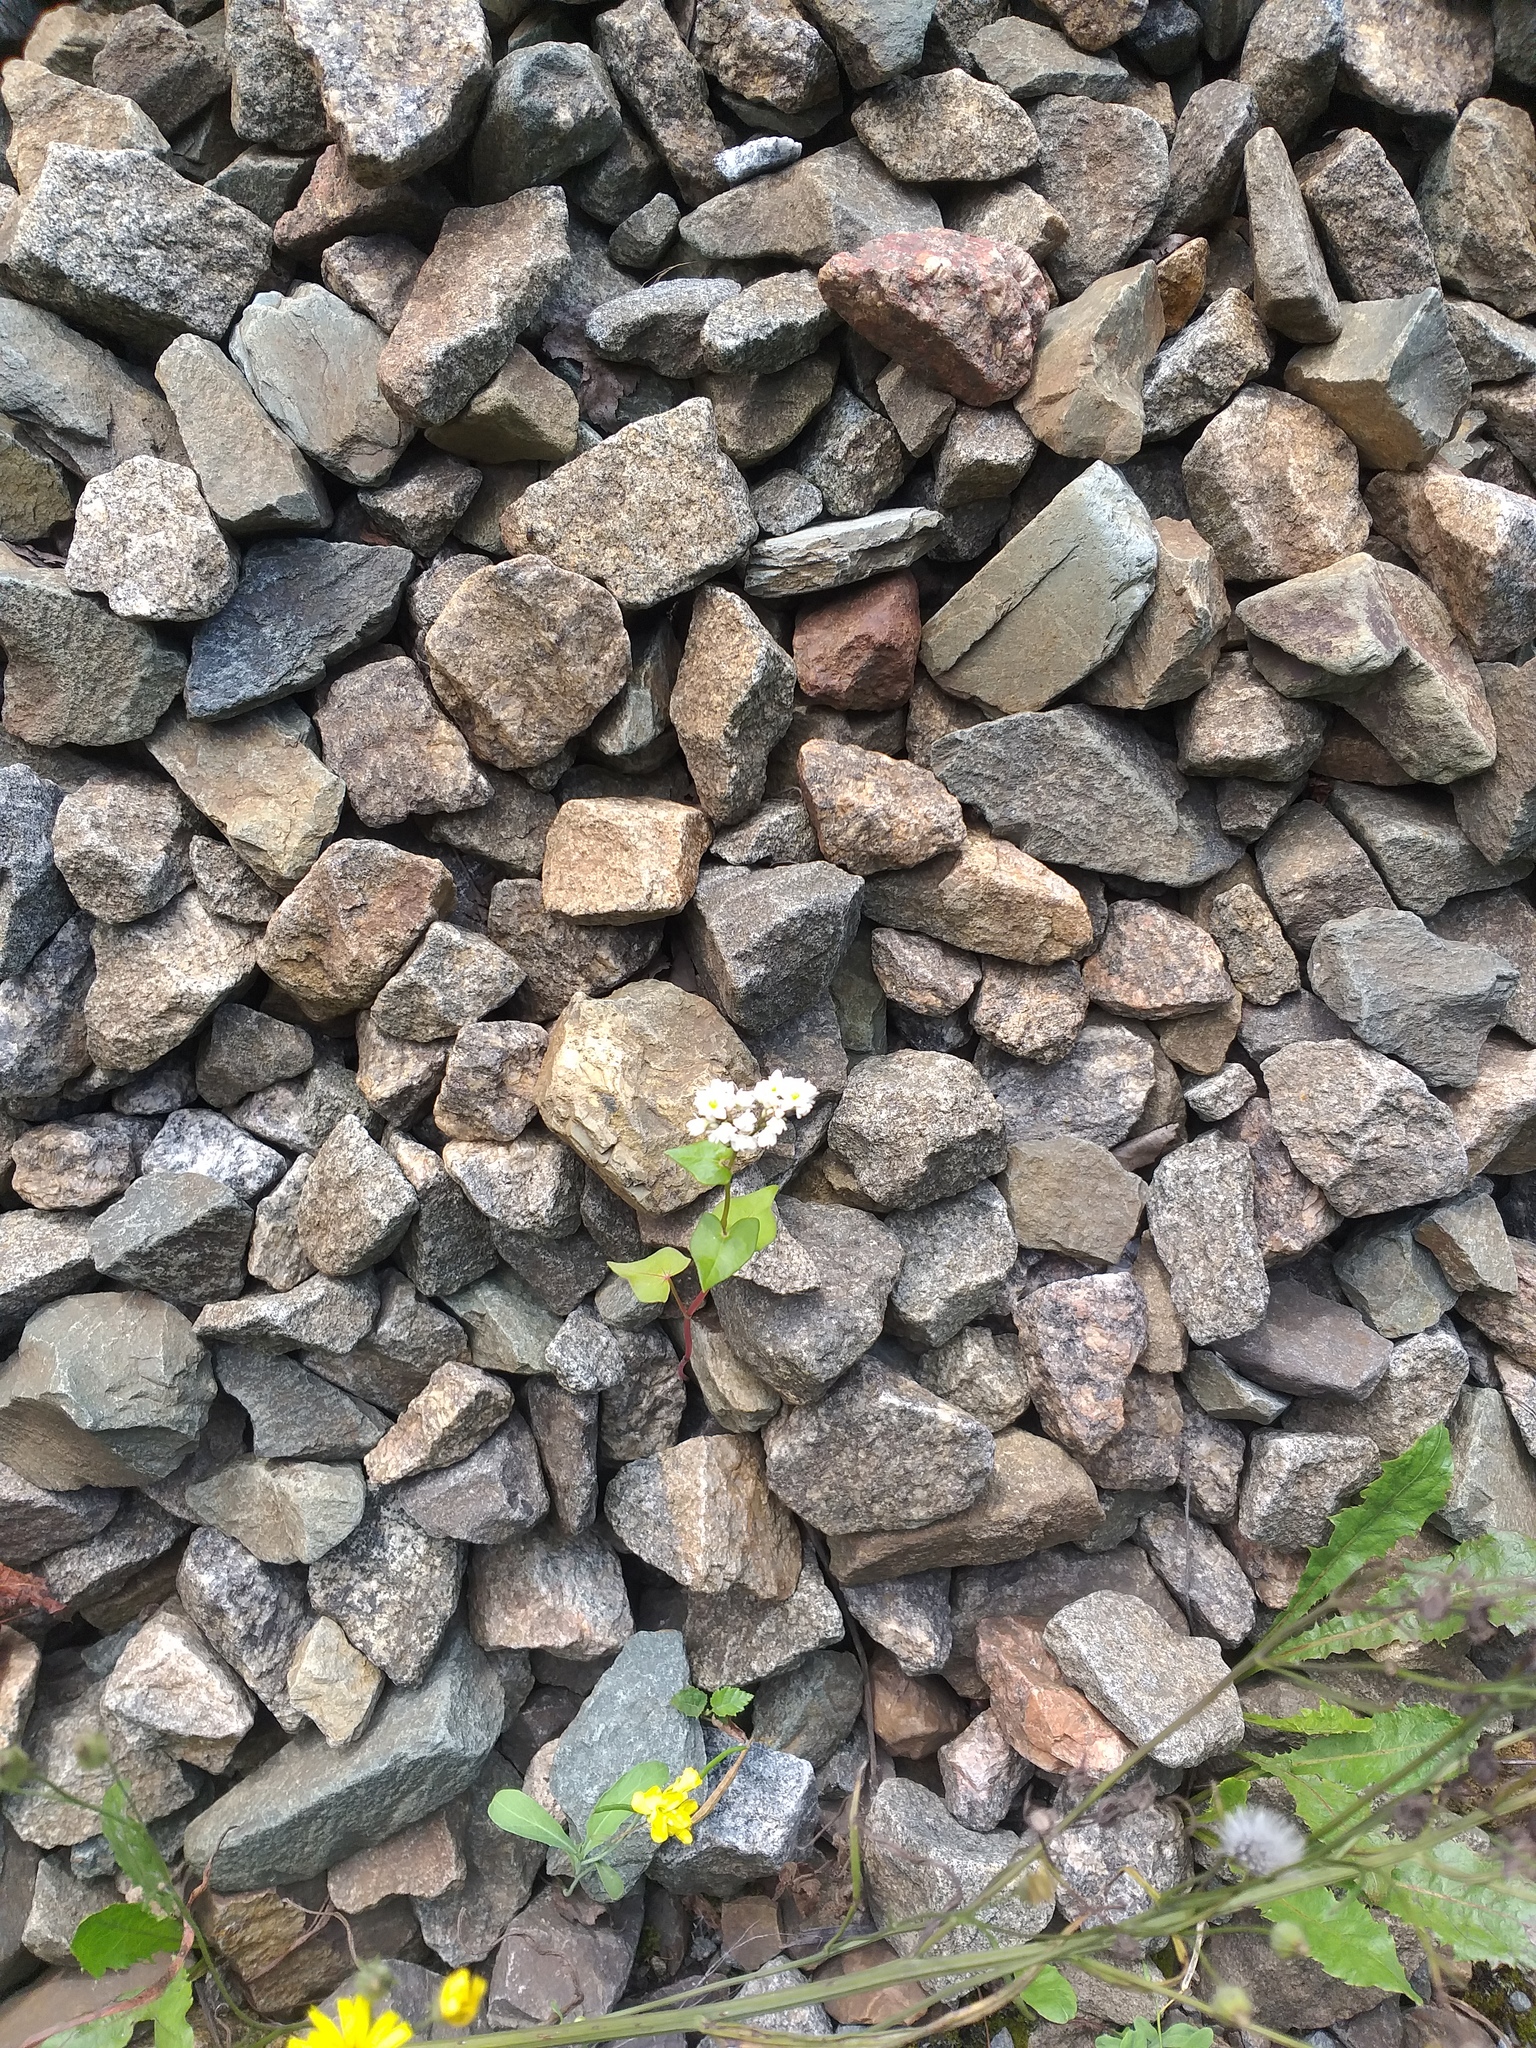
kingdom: Plantae
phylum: Tracheophyta
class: Magnoliopsida
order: Caryophyllales
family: Polygonaceae
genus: Fagopyrum
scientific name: Fagopyrum esculentum
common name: Buckwheat
